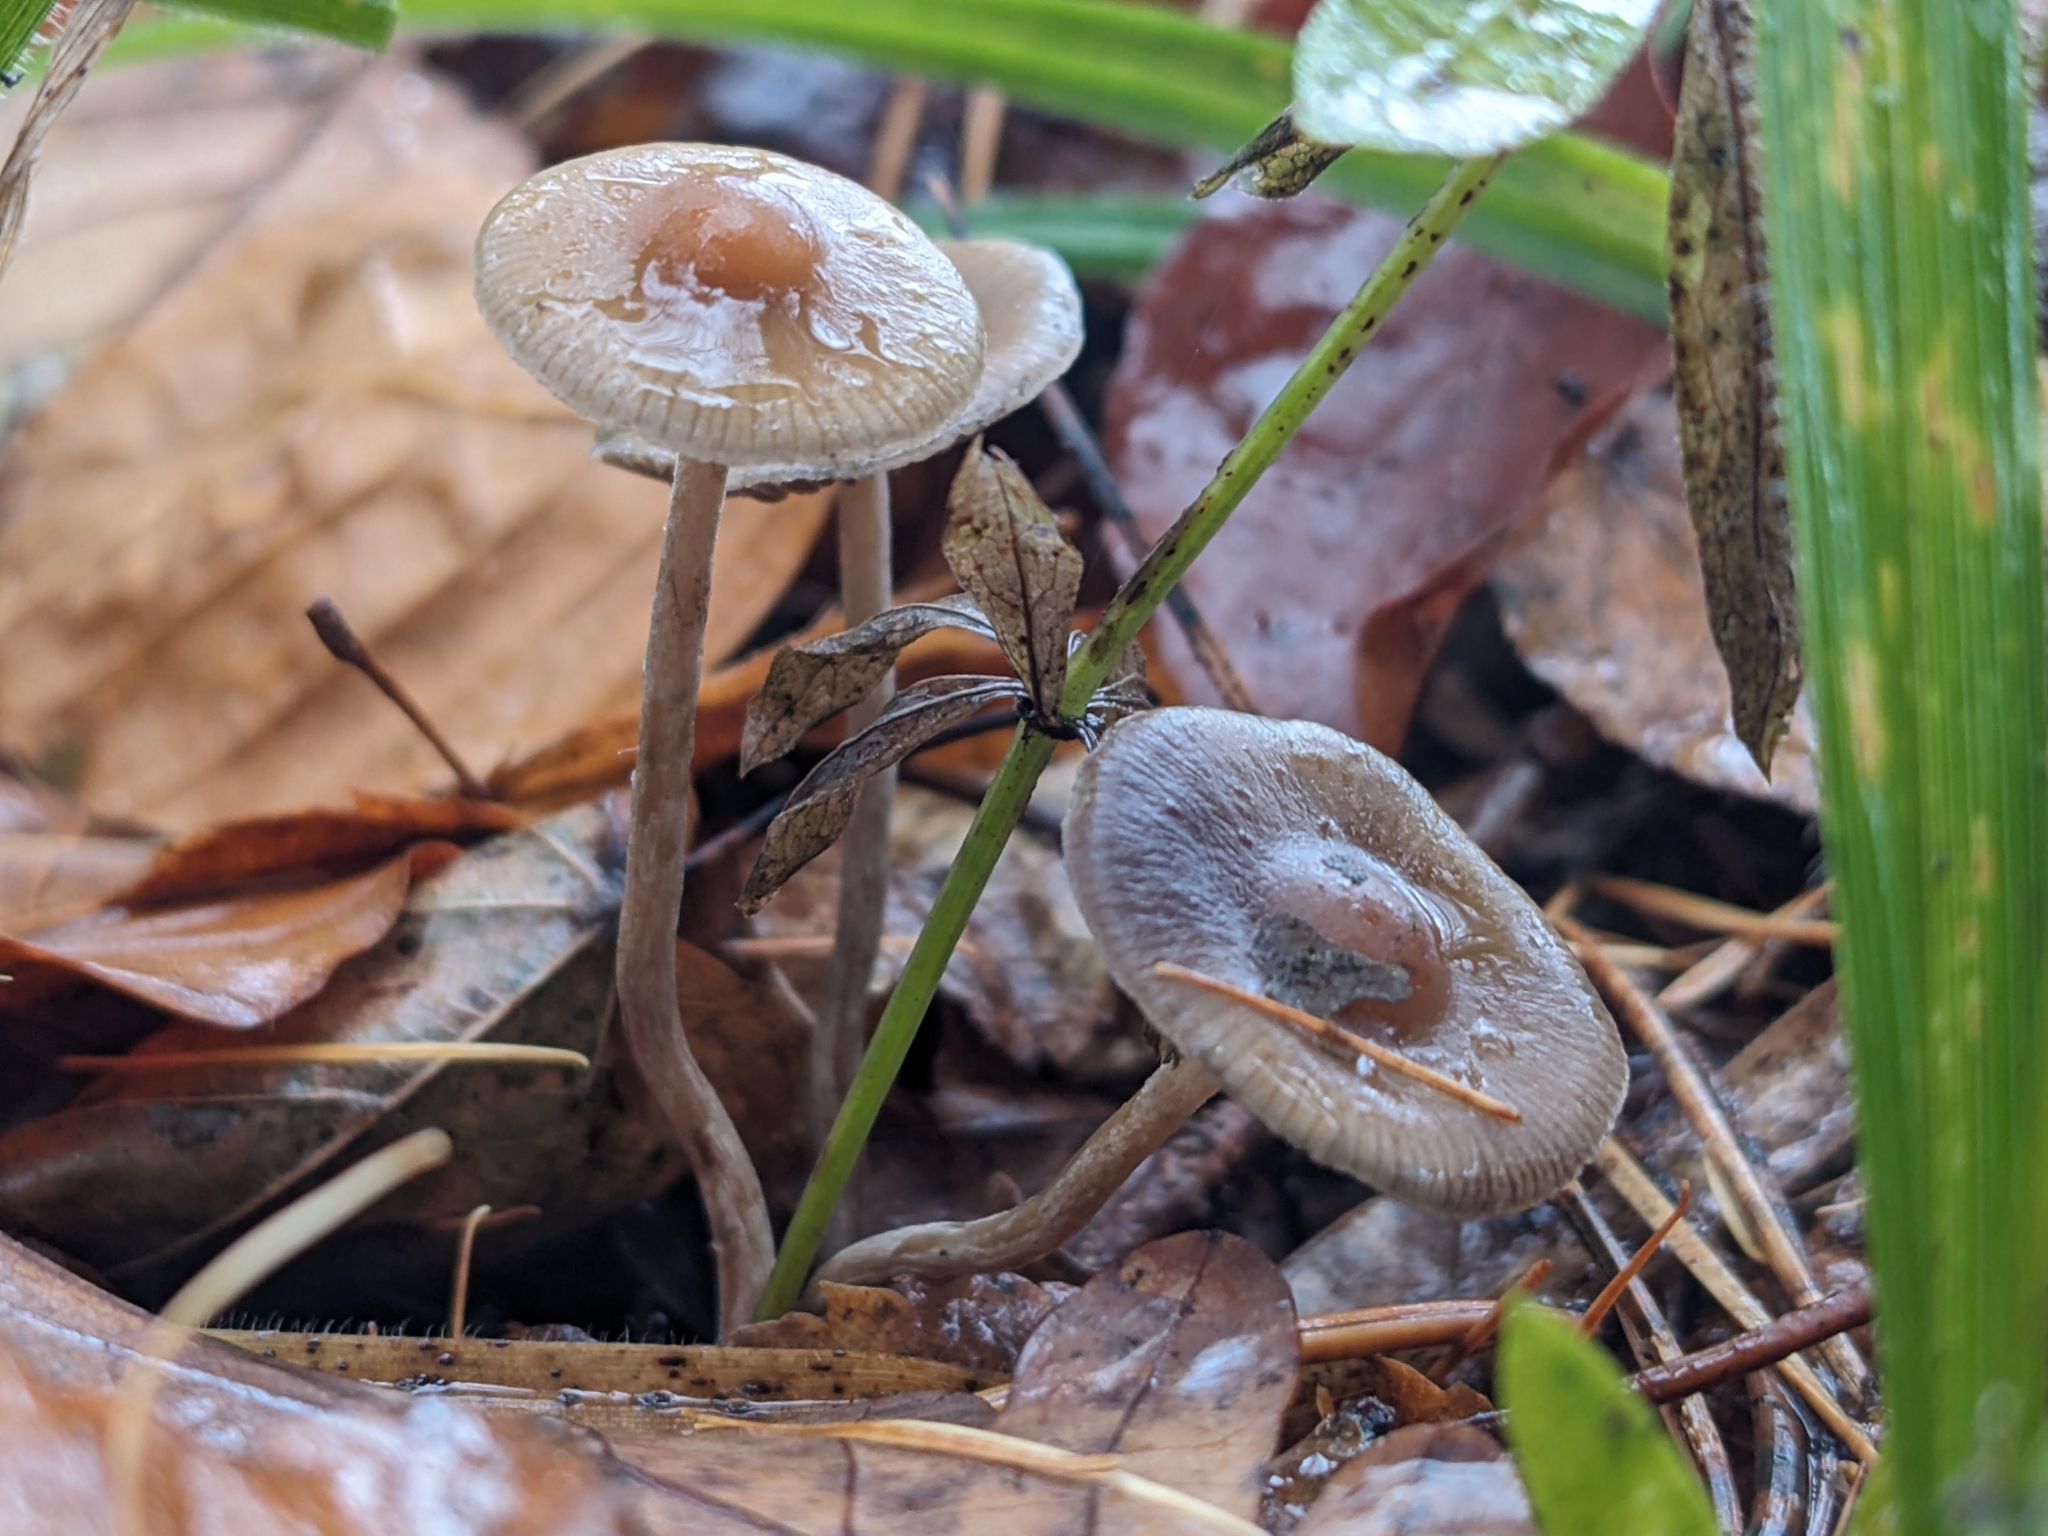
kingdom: Fungi
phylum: Basidiomycota
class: Agaricomycetes
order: Agaricales
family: Hymenogastraceae
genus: Psilocybe
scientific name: Psilocybe serbica
